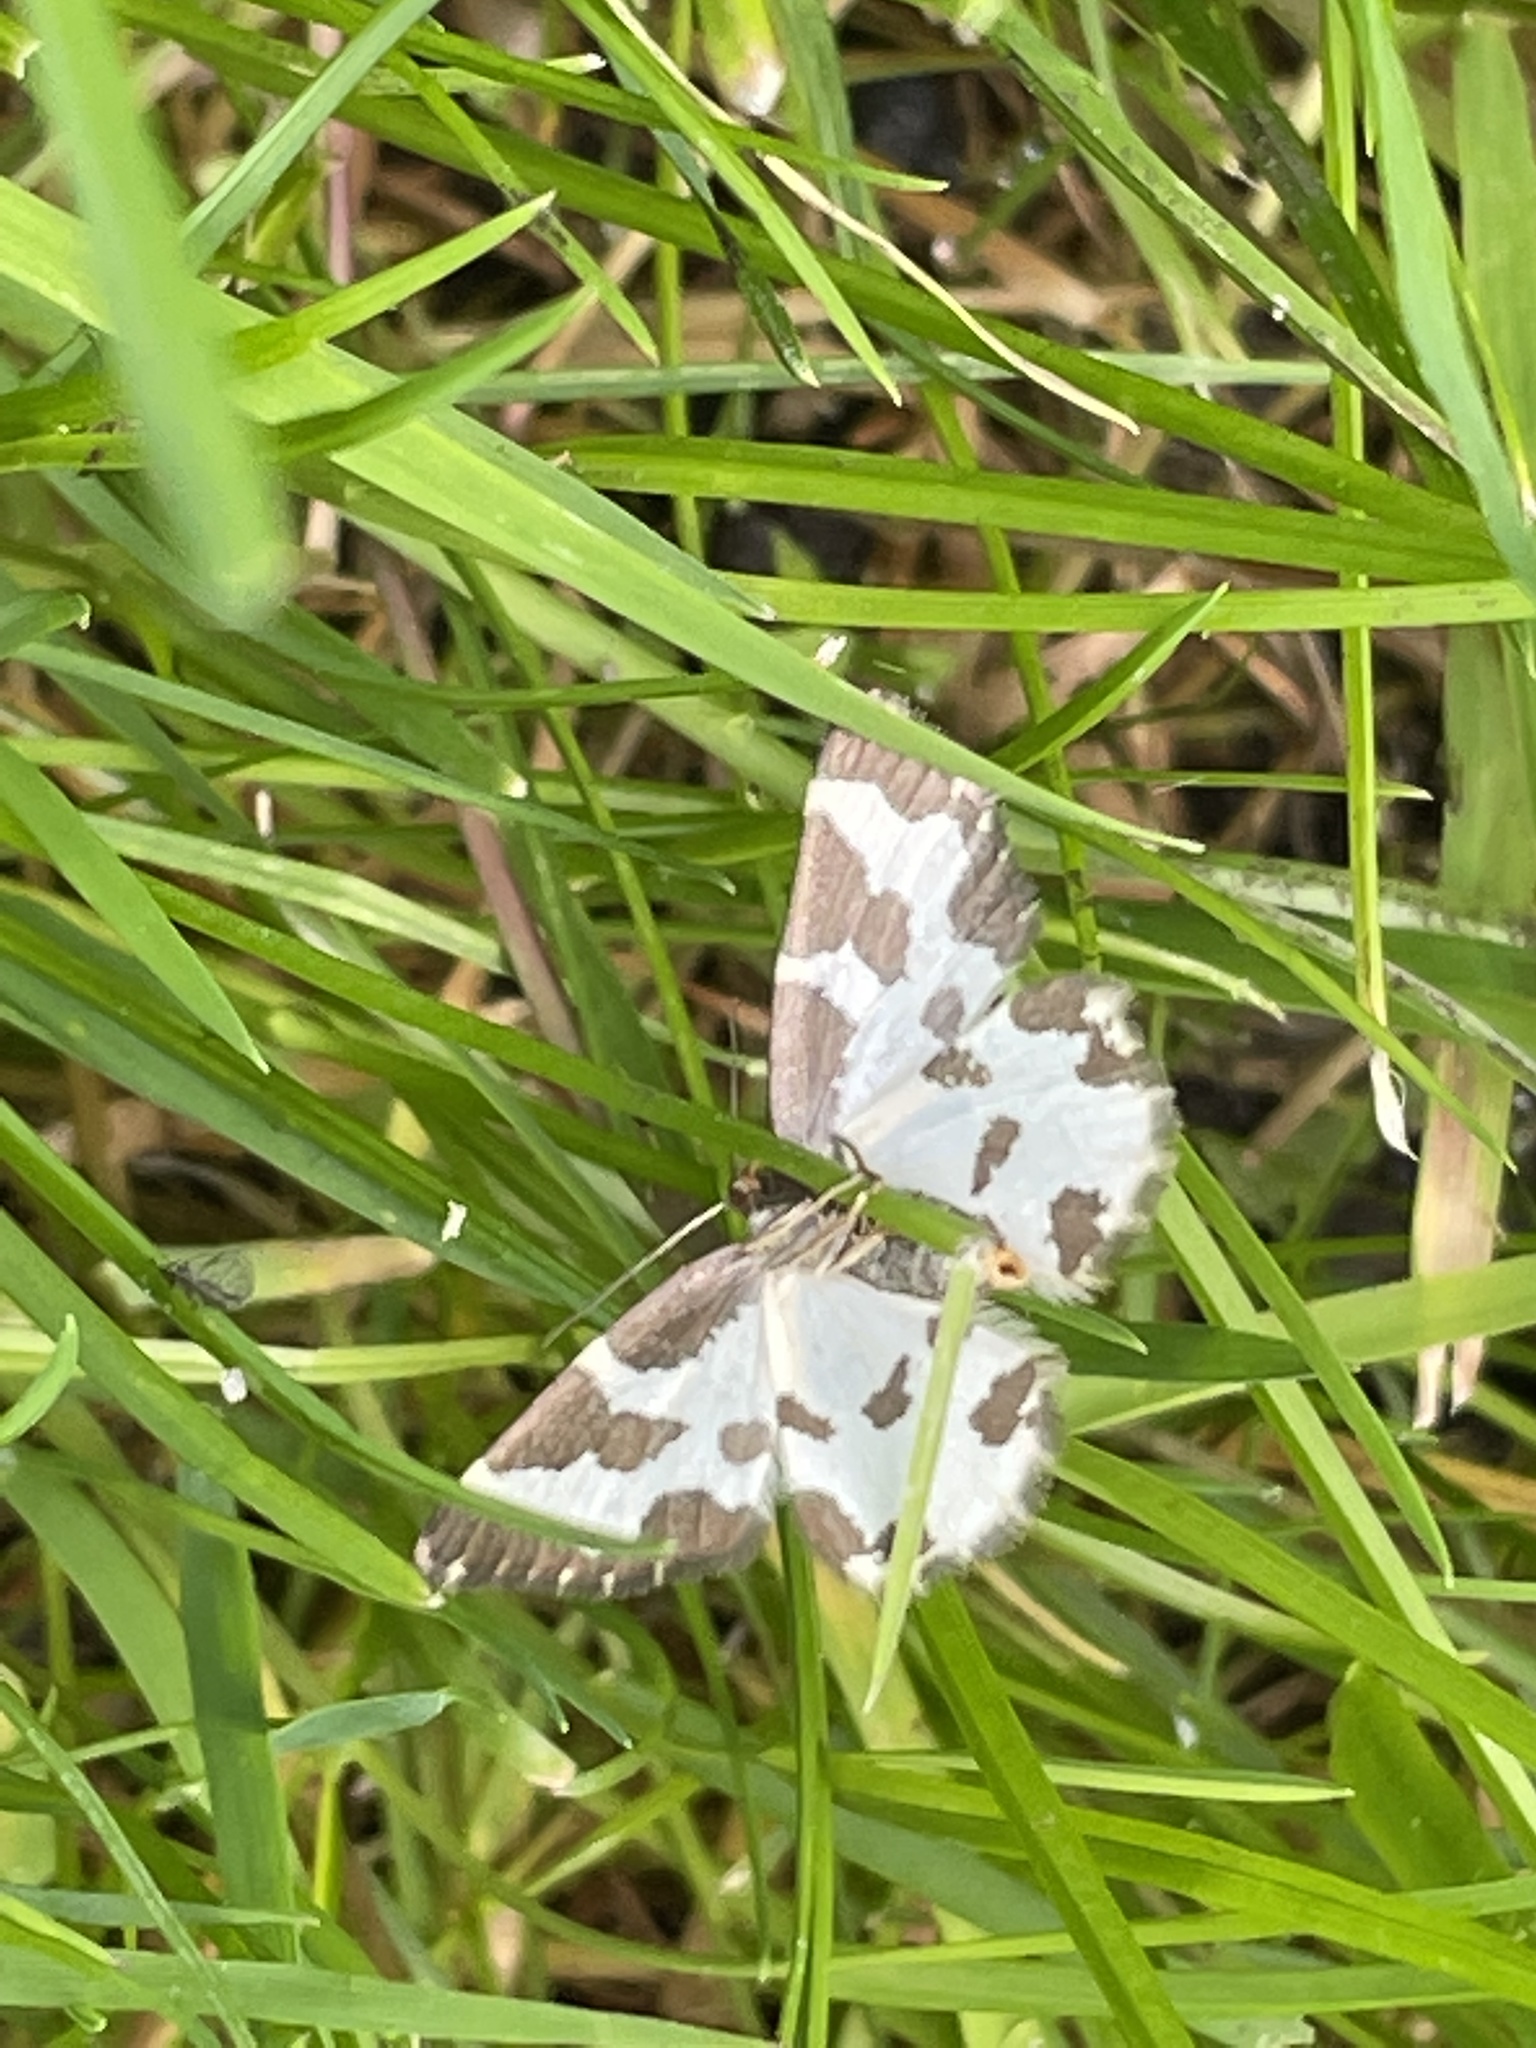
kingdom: Animalia
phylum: Arthropoda
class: Insecta
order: Lepidoptera
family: Geometridae
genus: Lomaspilis
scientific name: Lomaspilis marginata
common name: Clouded border
